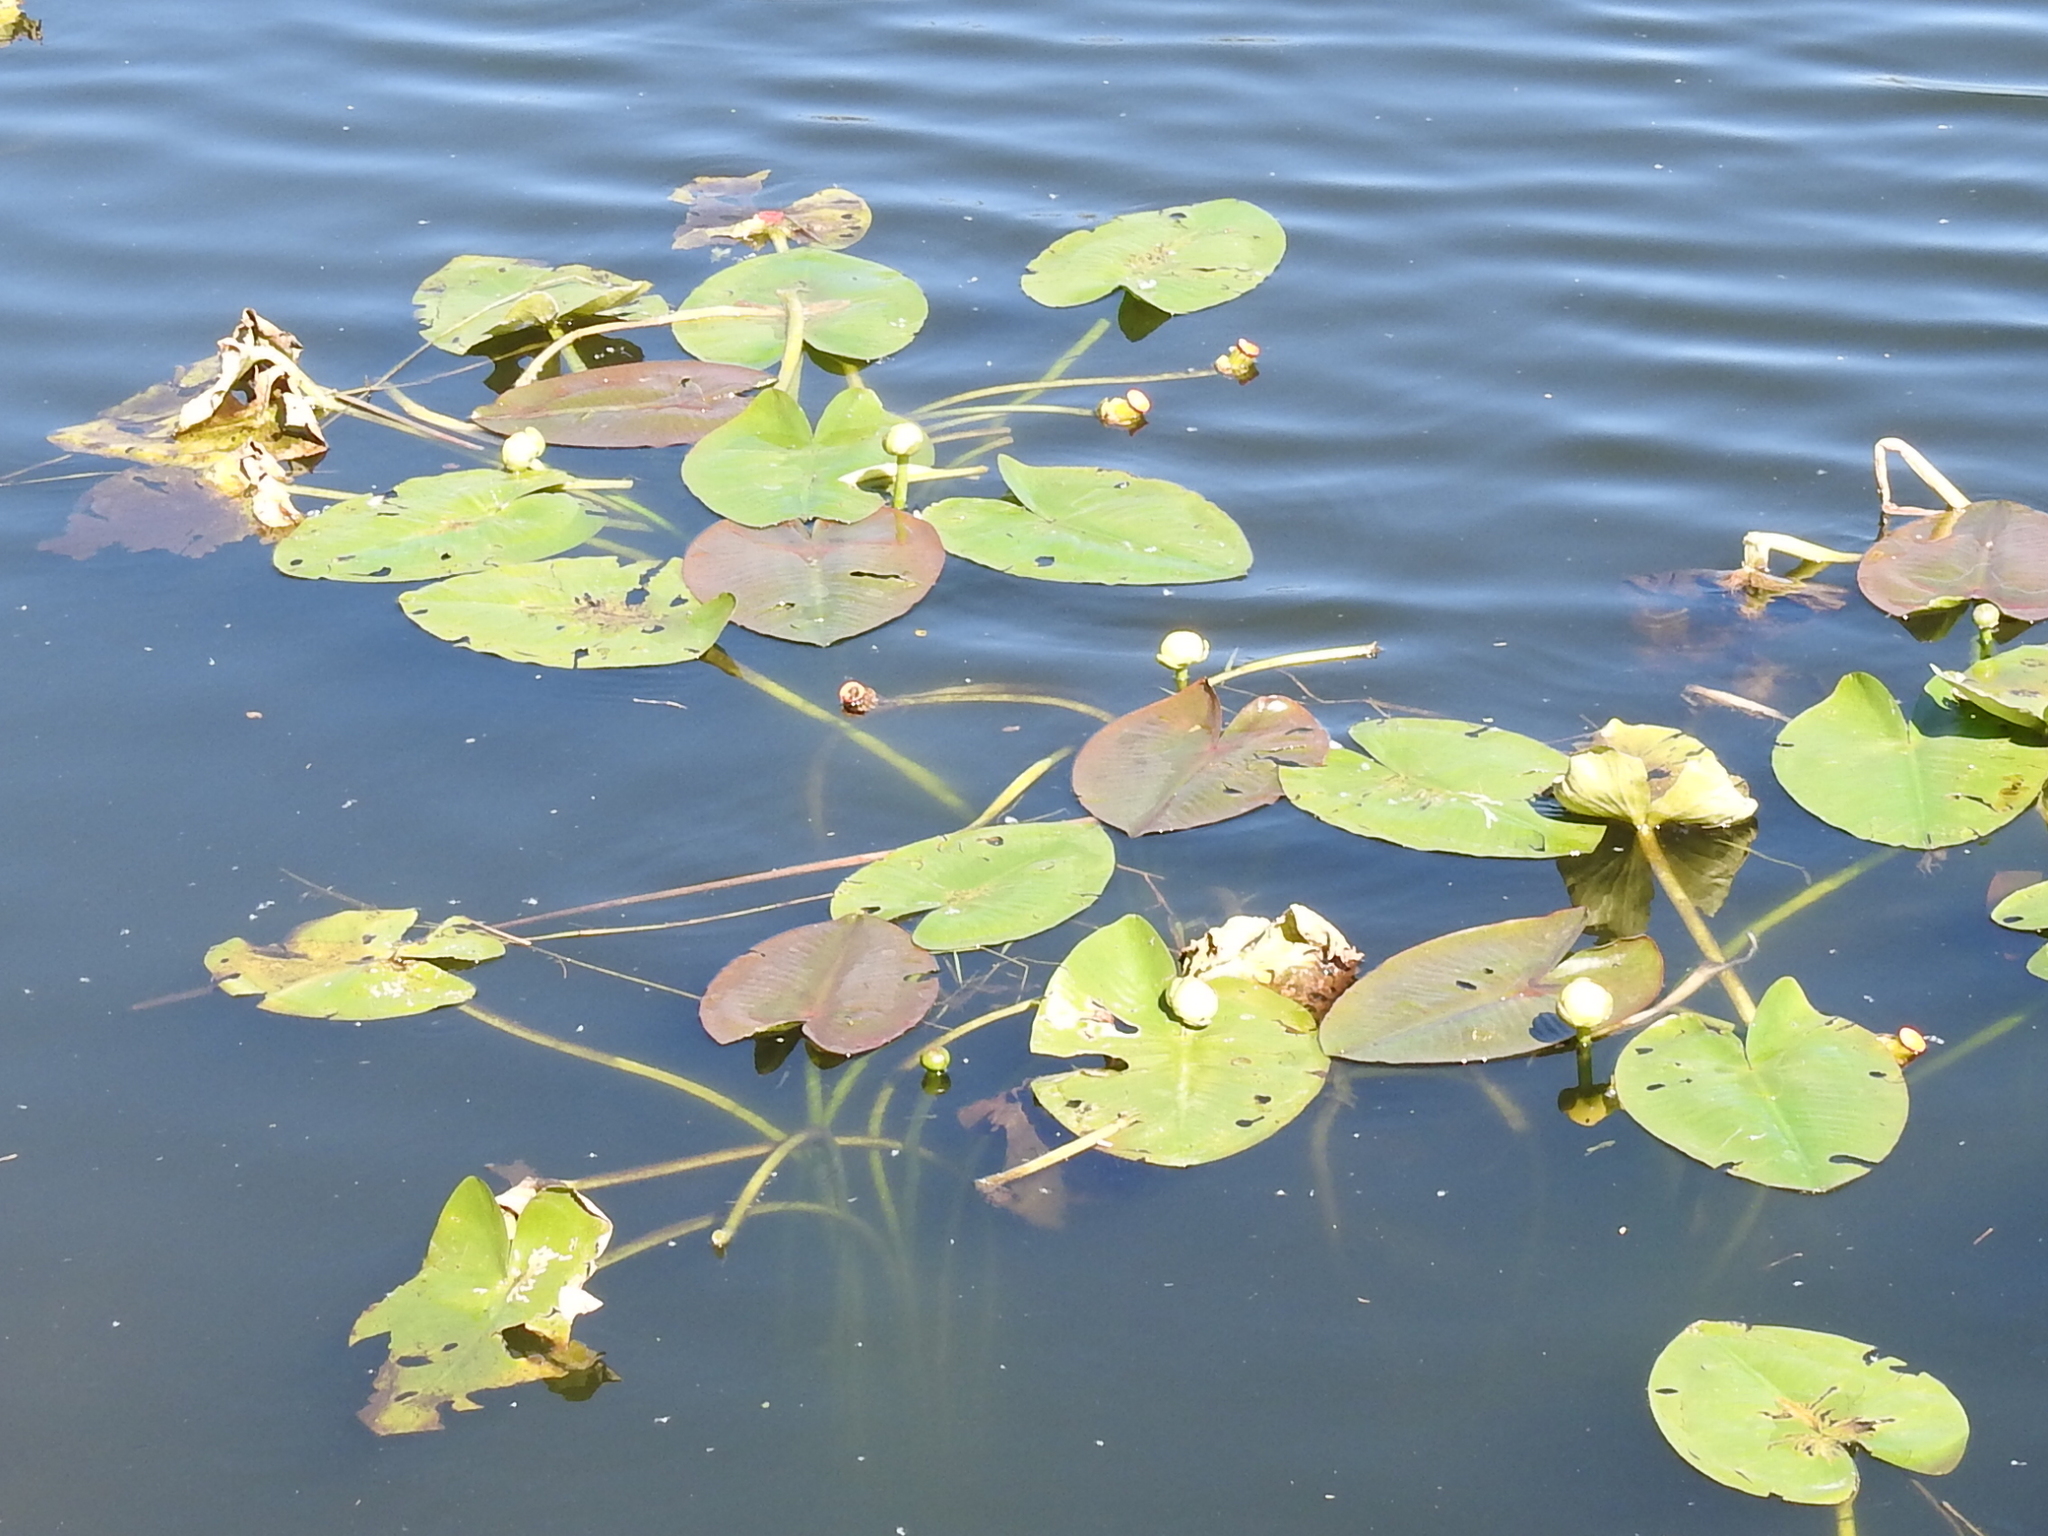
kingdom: Plantae
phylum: Tracheophyta
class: Magnoliopsida
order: Nymphaeales
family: Nymphaeaceae
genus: Nuphar
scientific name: Nuphar advena
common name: Spatter-dock
